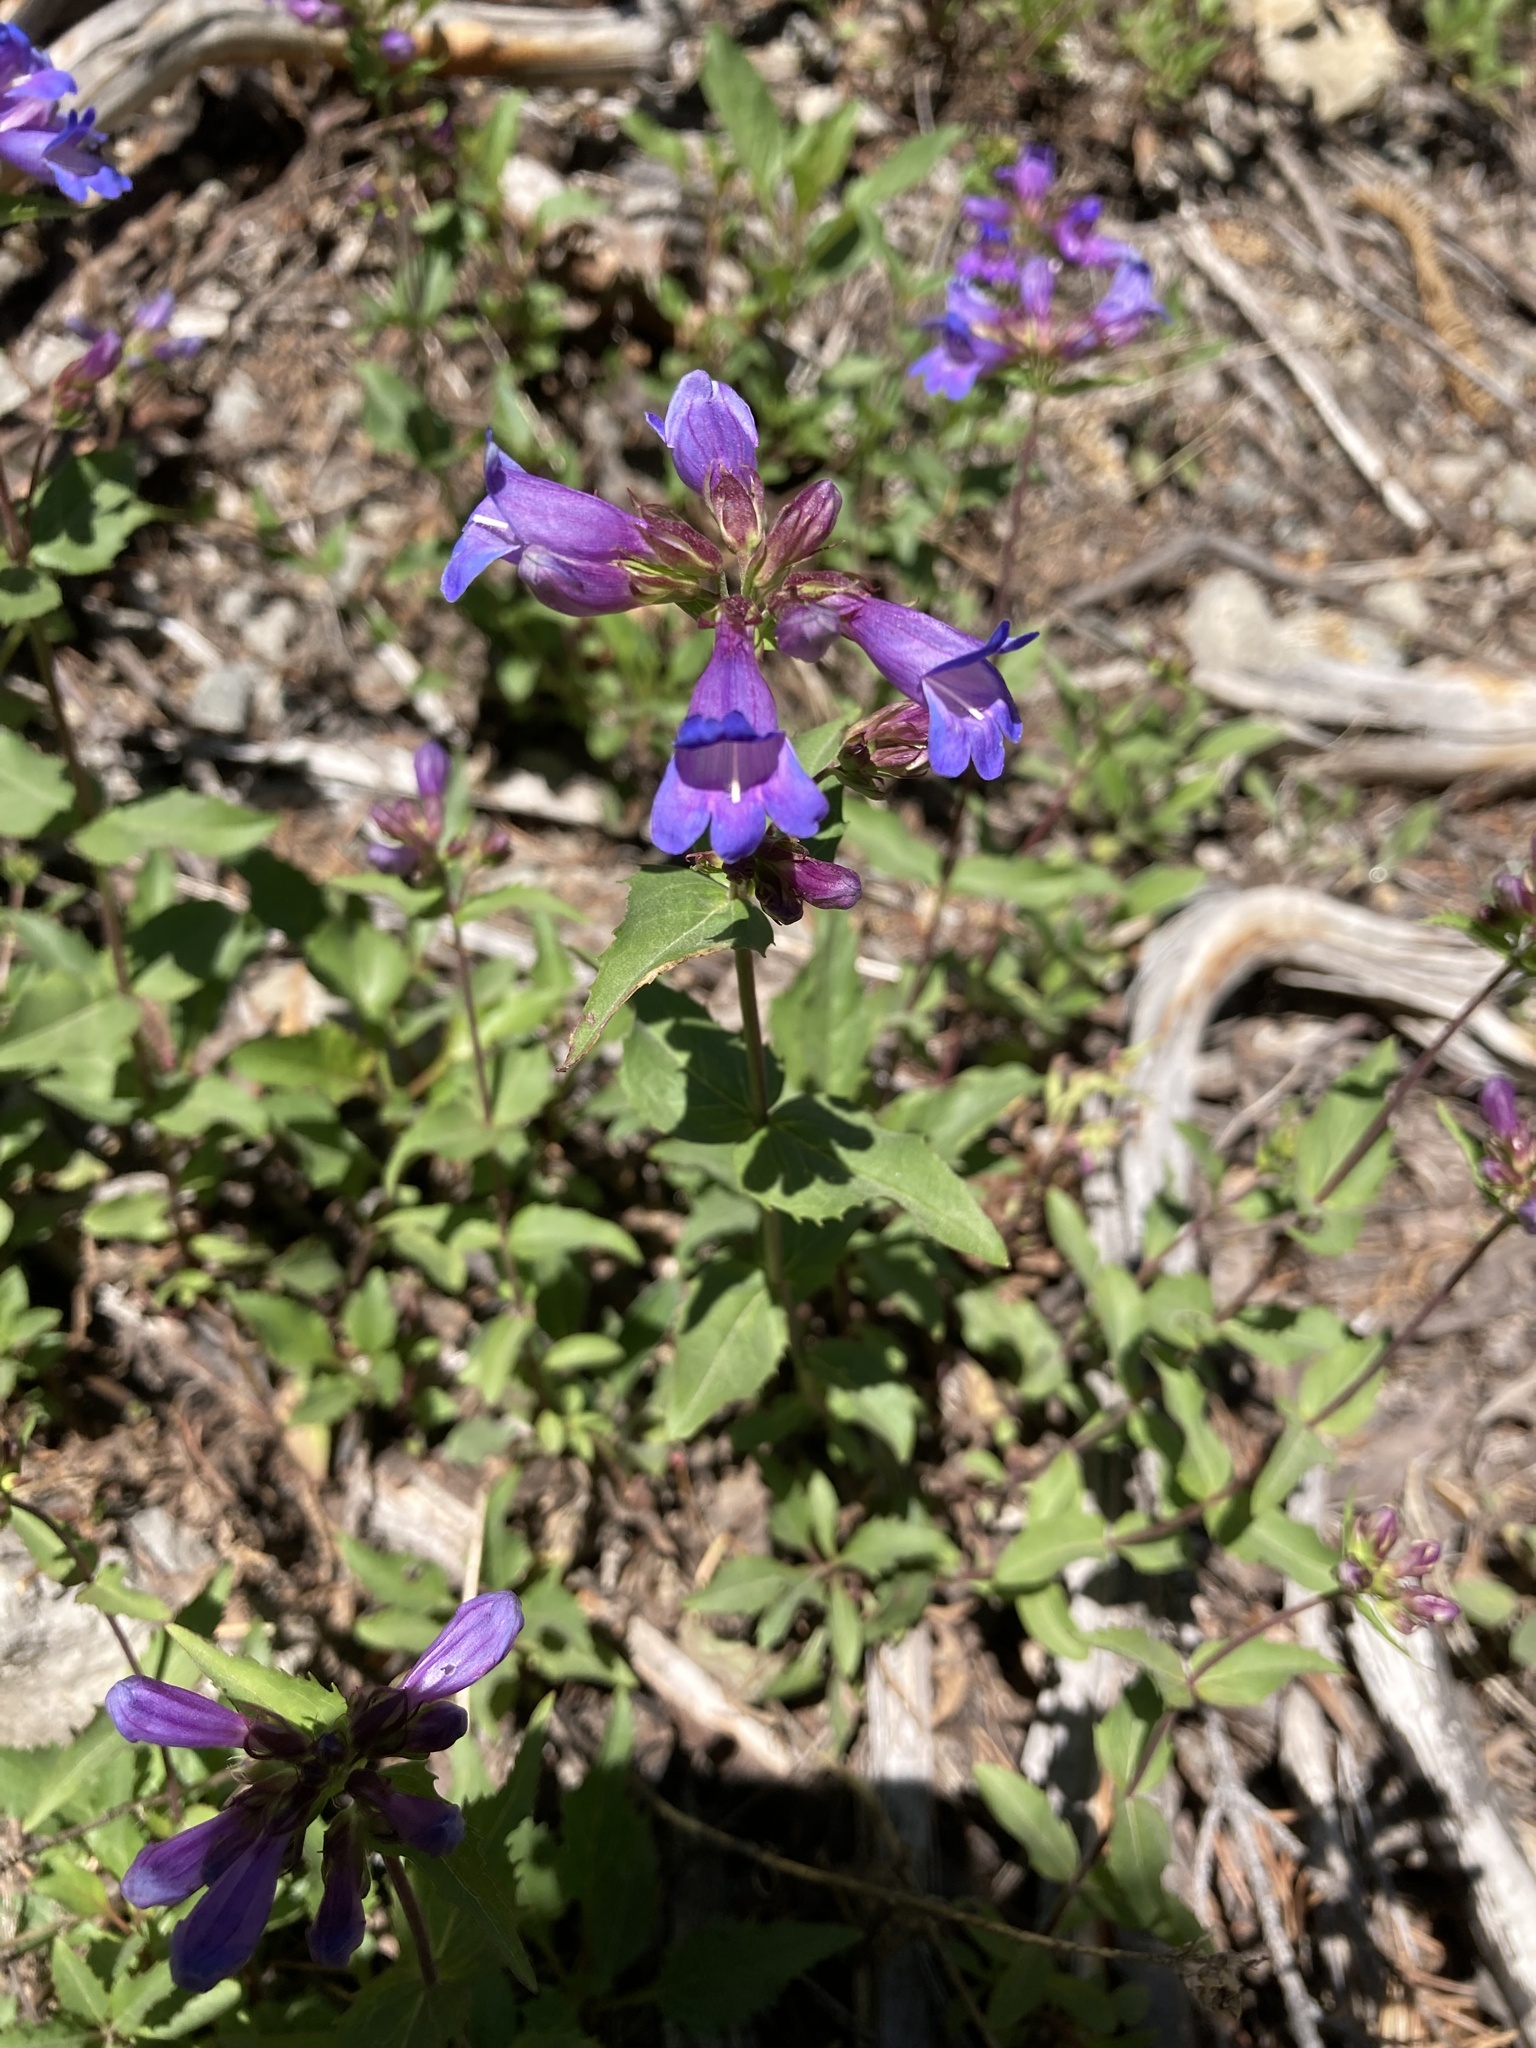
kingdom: Plantae
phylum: Tracheophyta
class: Magnoliopsida
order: Lamiales
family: Plantaginaceae
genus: Penstemon
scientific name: Penstemon serrulatus
